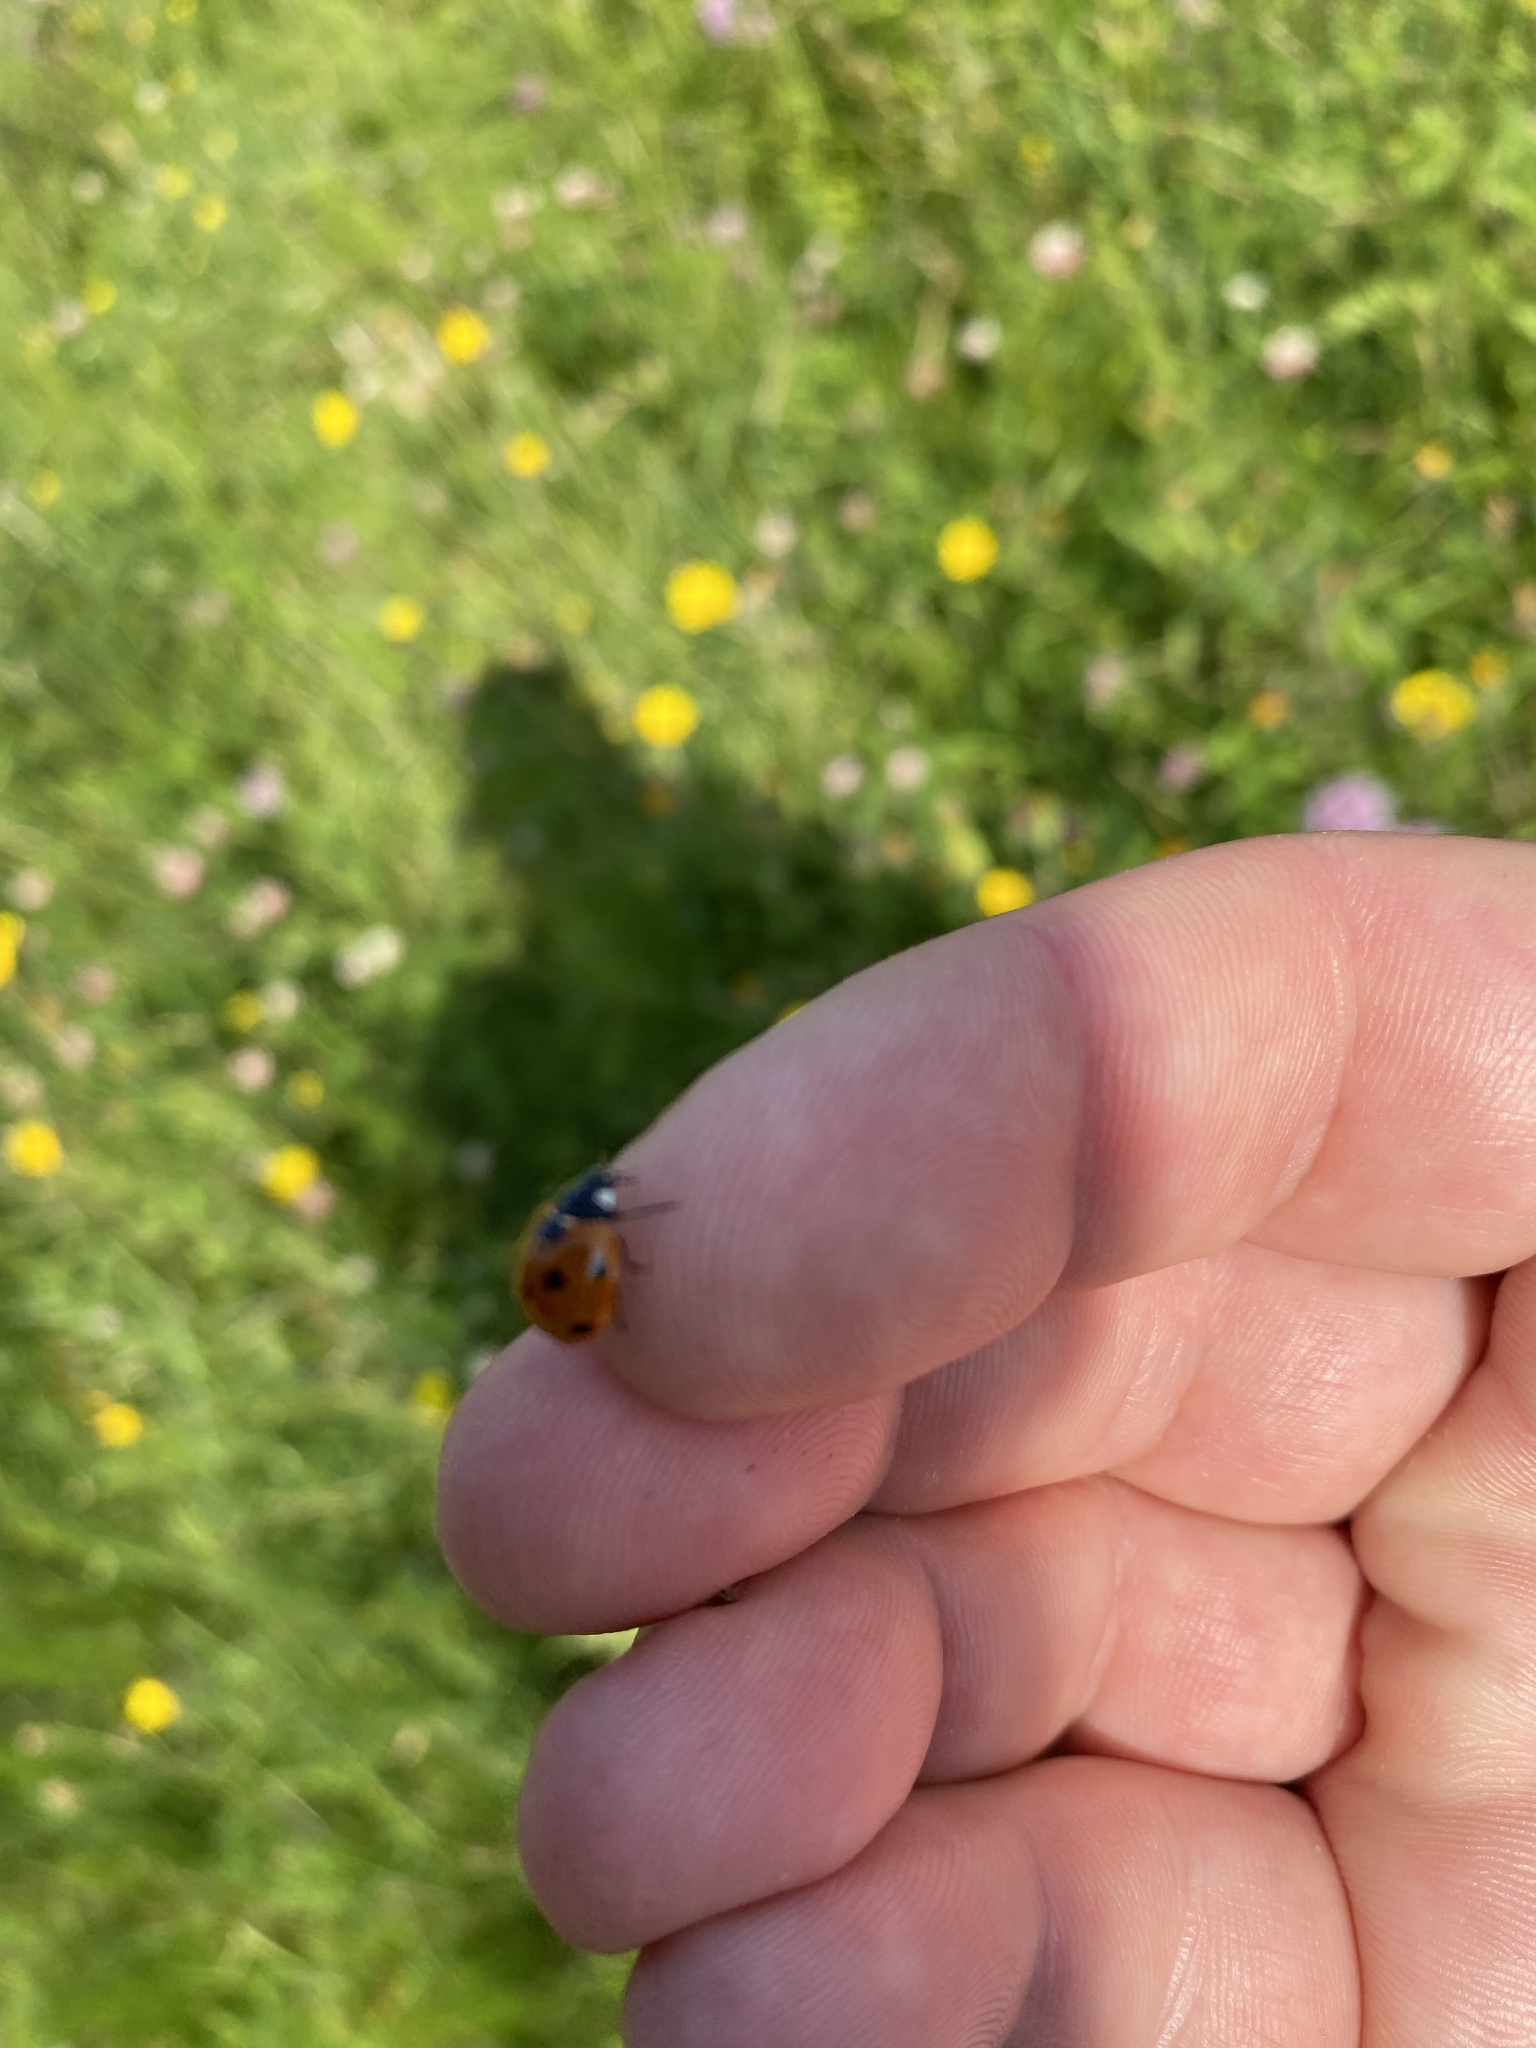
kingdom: Animalia
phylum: Arthropoda
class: Insecta
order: Coleoptera
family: Coccinellidae
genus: Coccinella
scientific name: Coccinella septempunctata
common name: Sevenspotted lady beetle
